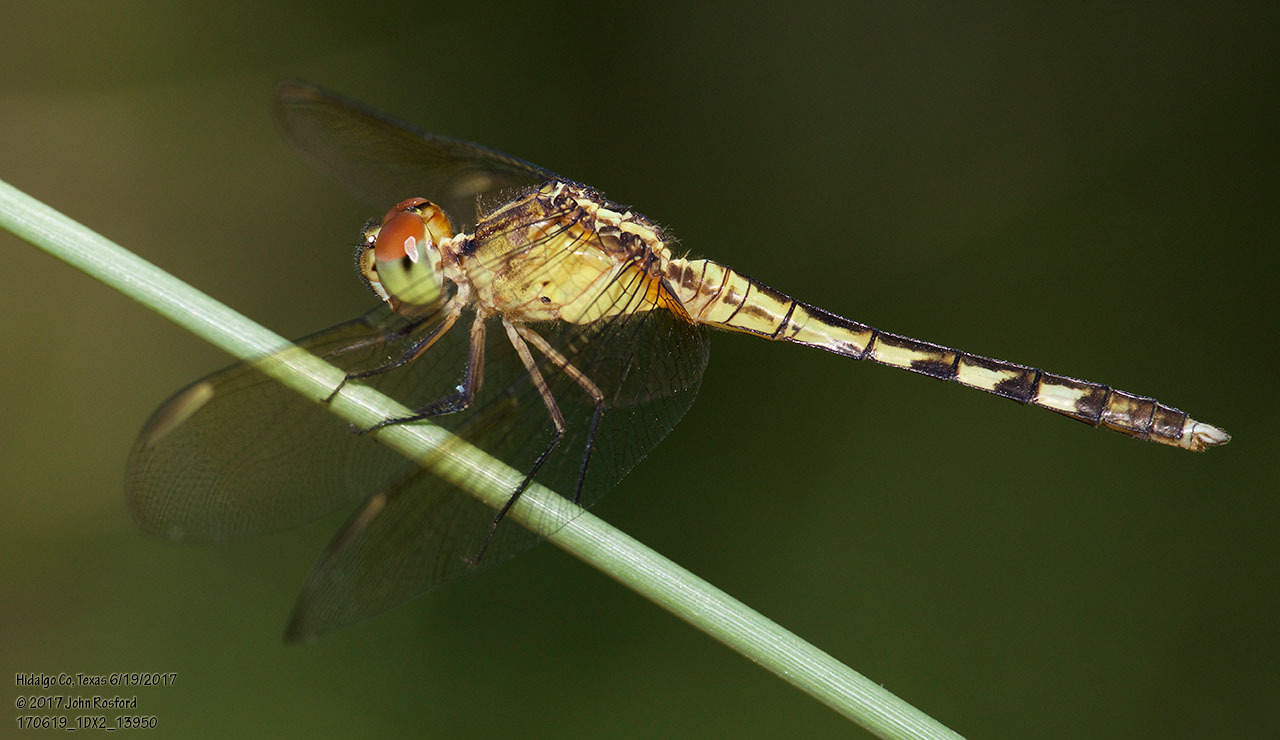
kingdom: Animalia
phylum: Arthropoda
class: Insecta
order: Odonata
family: Libellulidae
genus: Erythrodiplax
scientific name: Erythrodiplax umbrata
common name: Band-winged dragonlet
